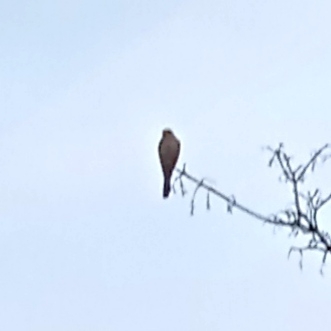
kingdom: Animalia
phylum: Chordata
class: Aves
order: Accipitriformes
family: Accipitridae
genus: Accipiter
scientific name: Accipiter nisus
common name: Eurasian sparrowhawk
